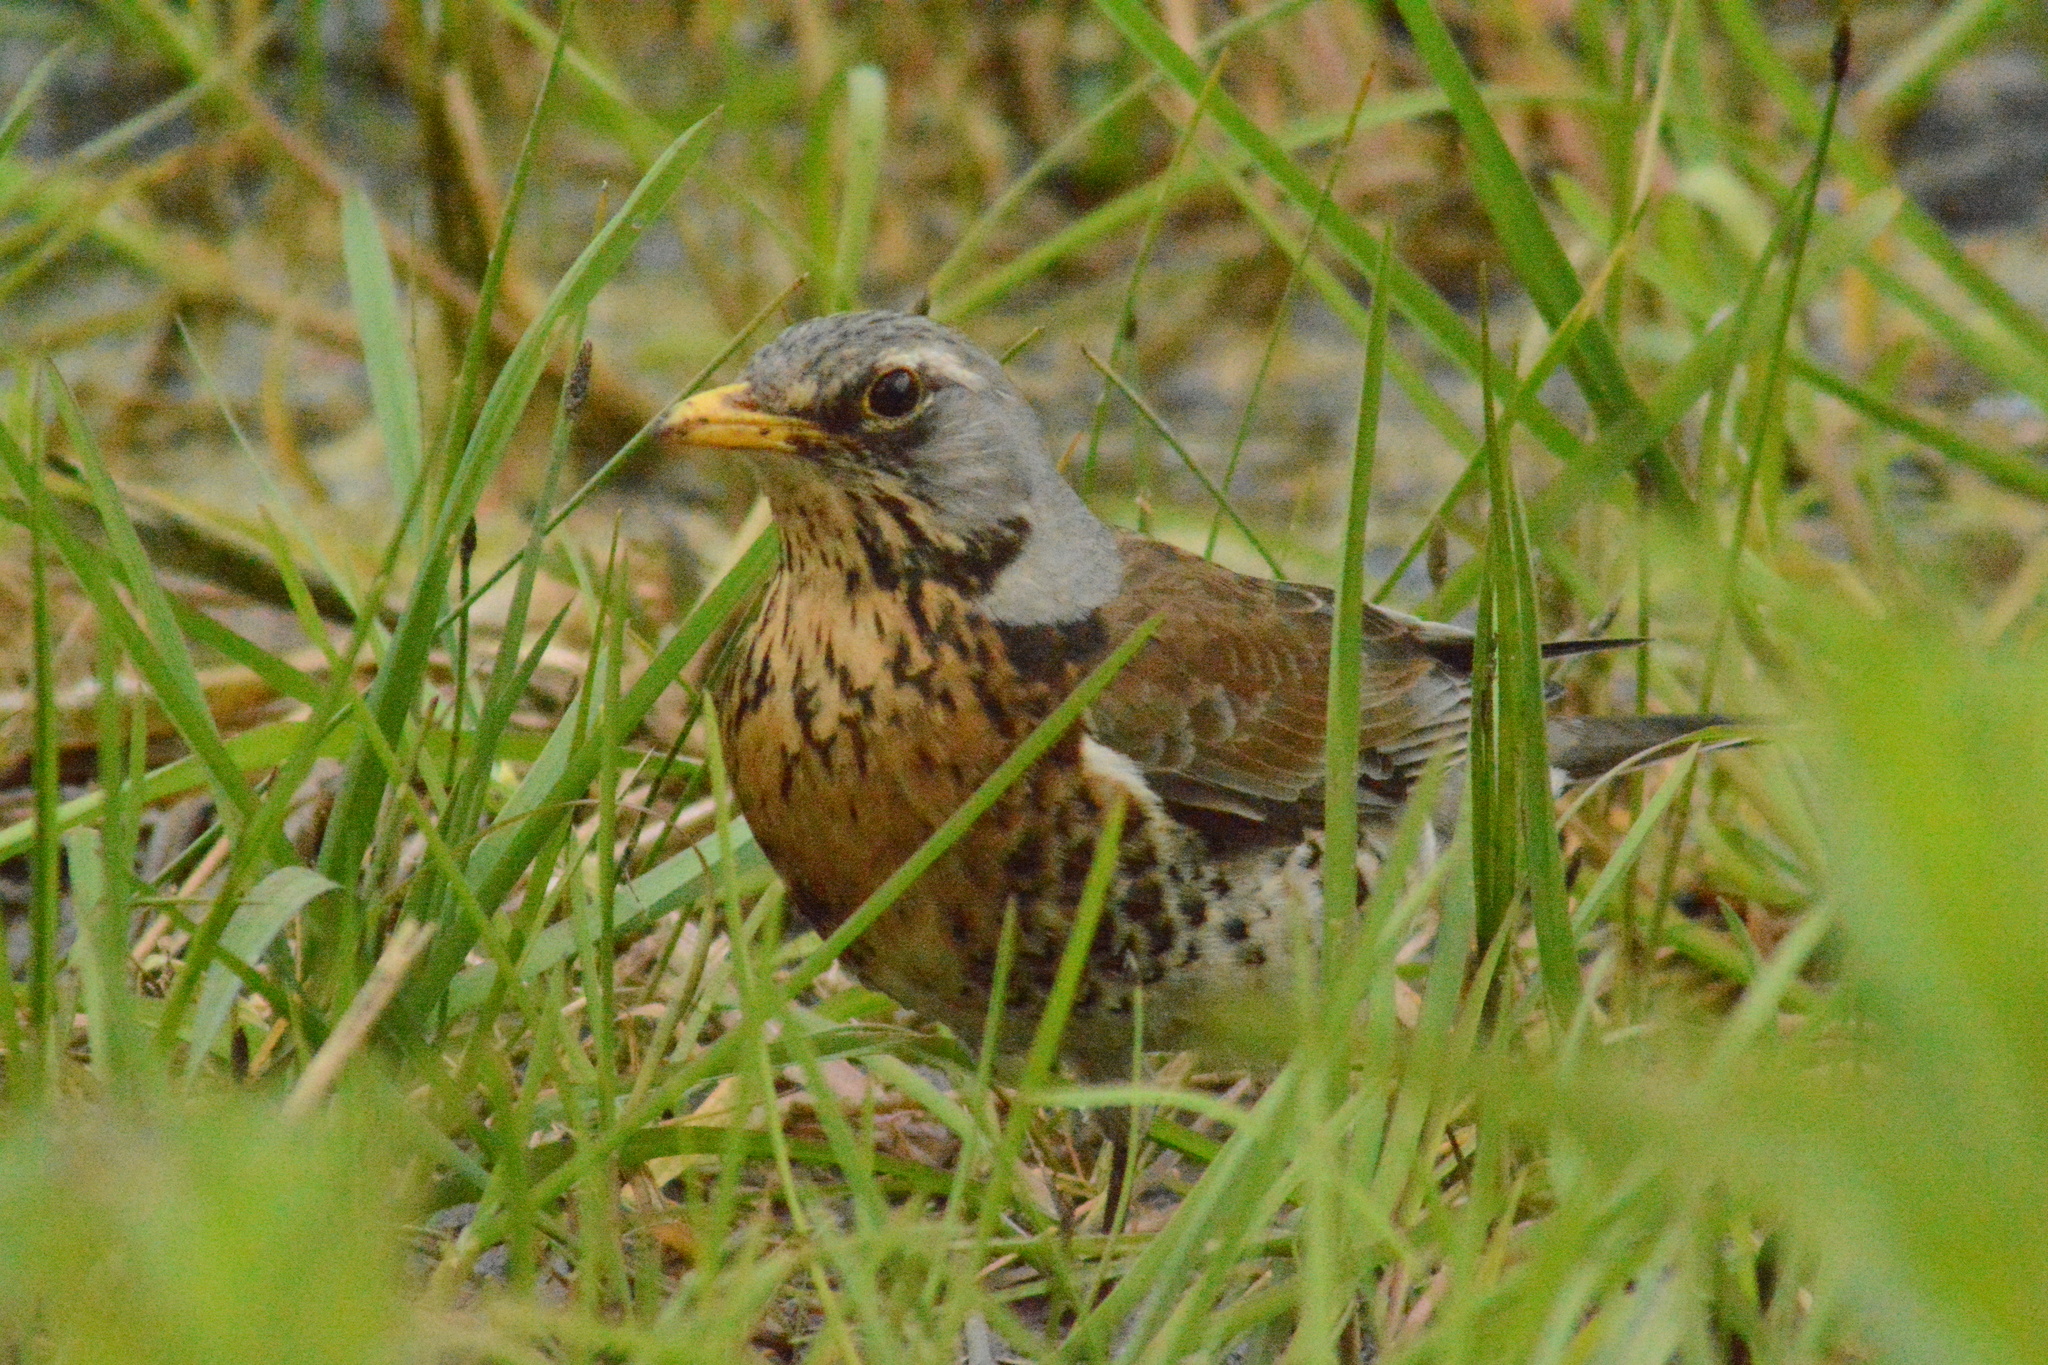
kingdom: Animalia
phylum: Chordata
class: Aves
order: Passeriformes
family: Turdidae
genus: Turdus
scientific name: Turdus pilaris
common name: Fieldfare
